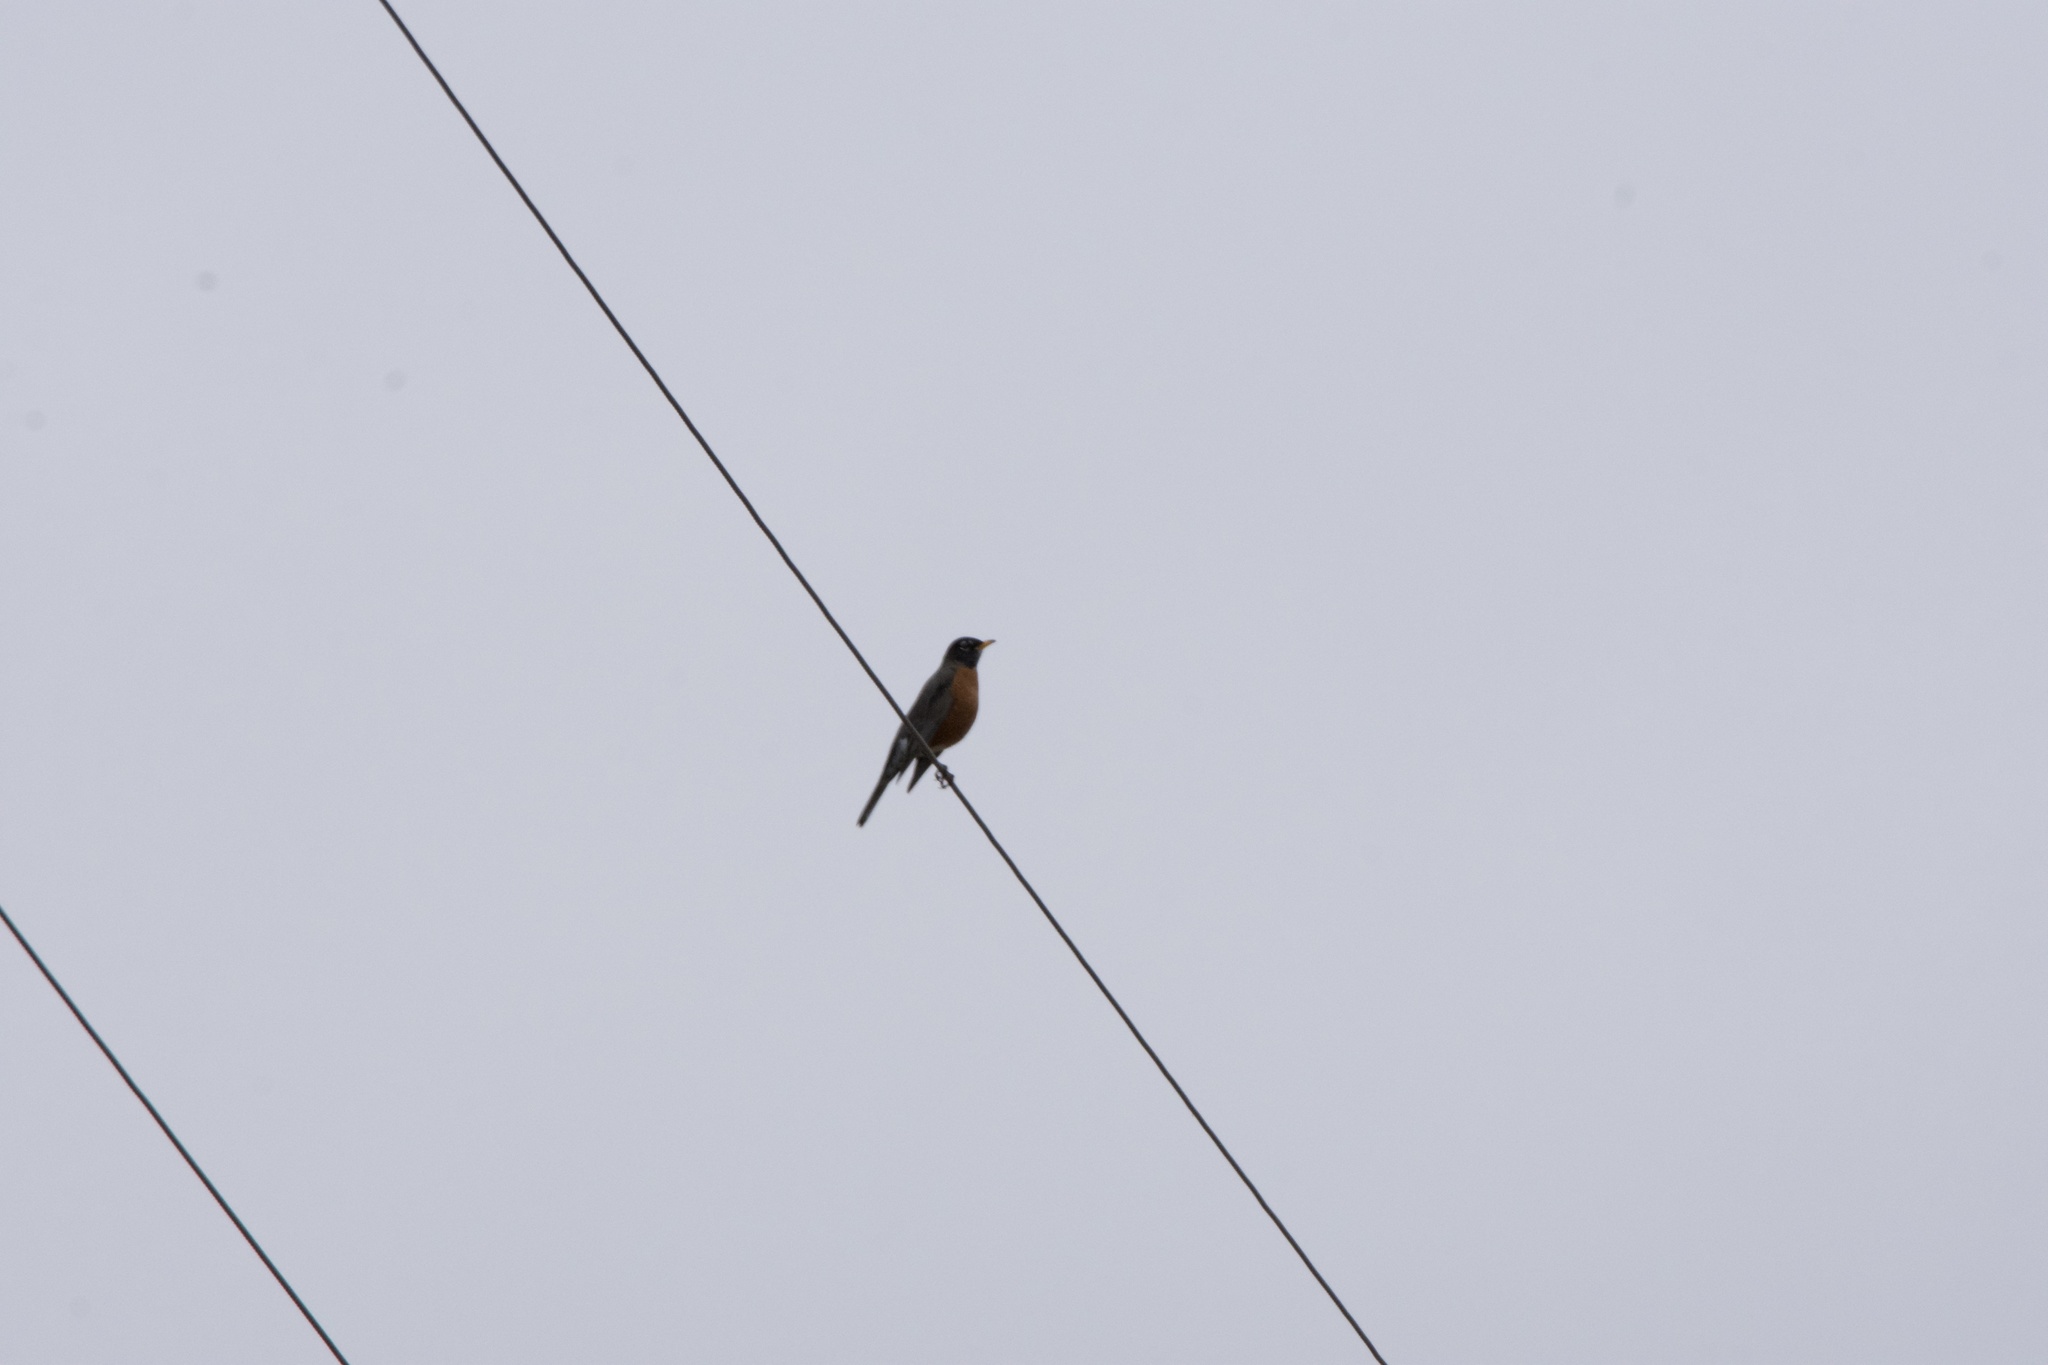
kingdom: Animalia
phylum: Chordata
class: Aves
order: Passeriformes
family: Turdidae
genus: Turdus
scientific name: Turdus migratorius
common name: American robin
